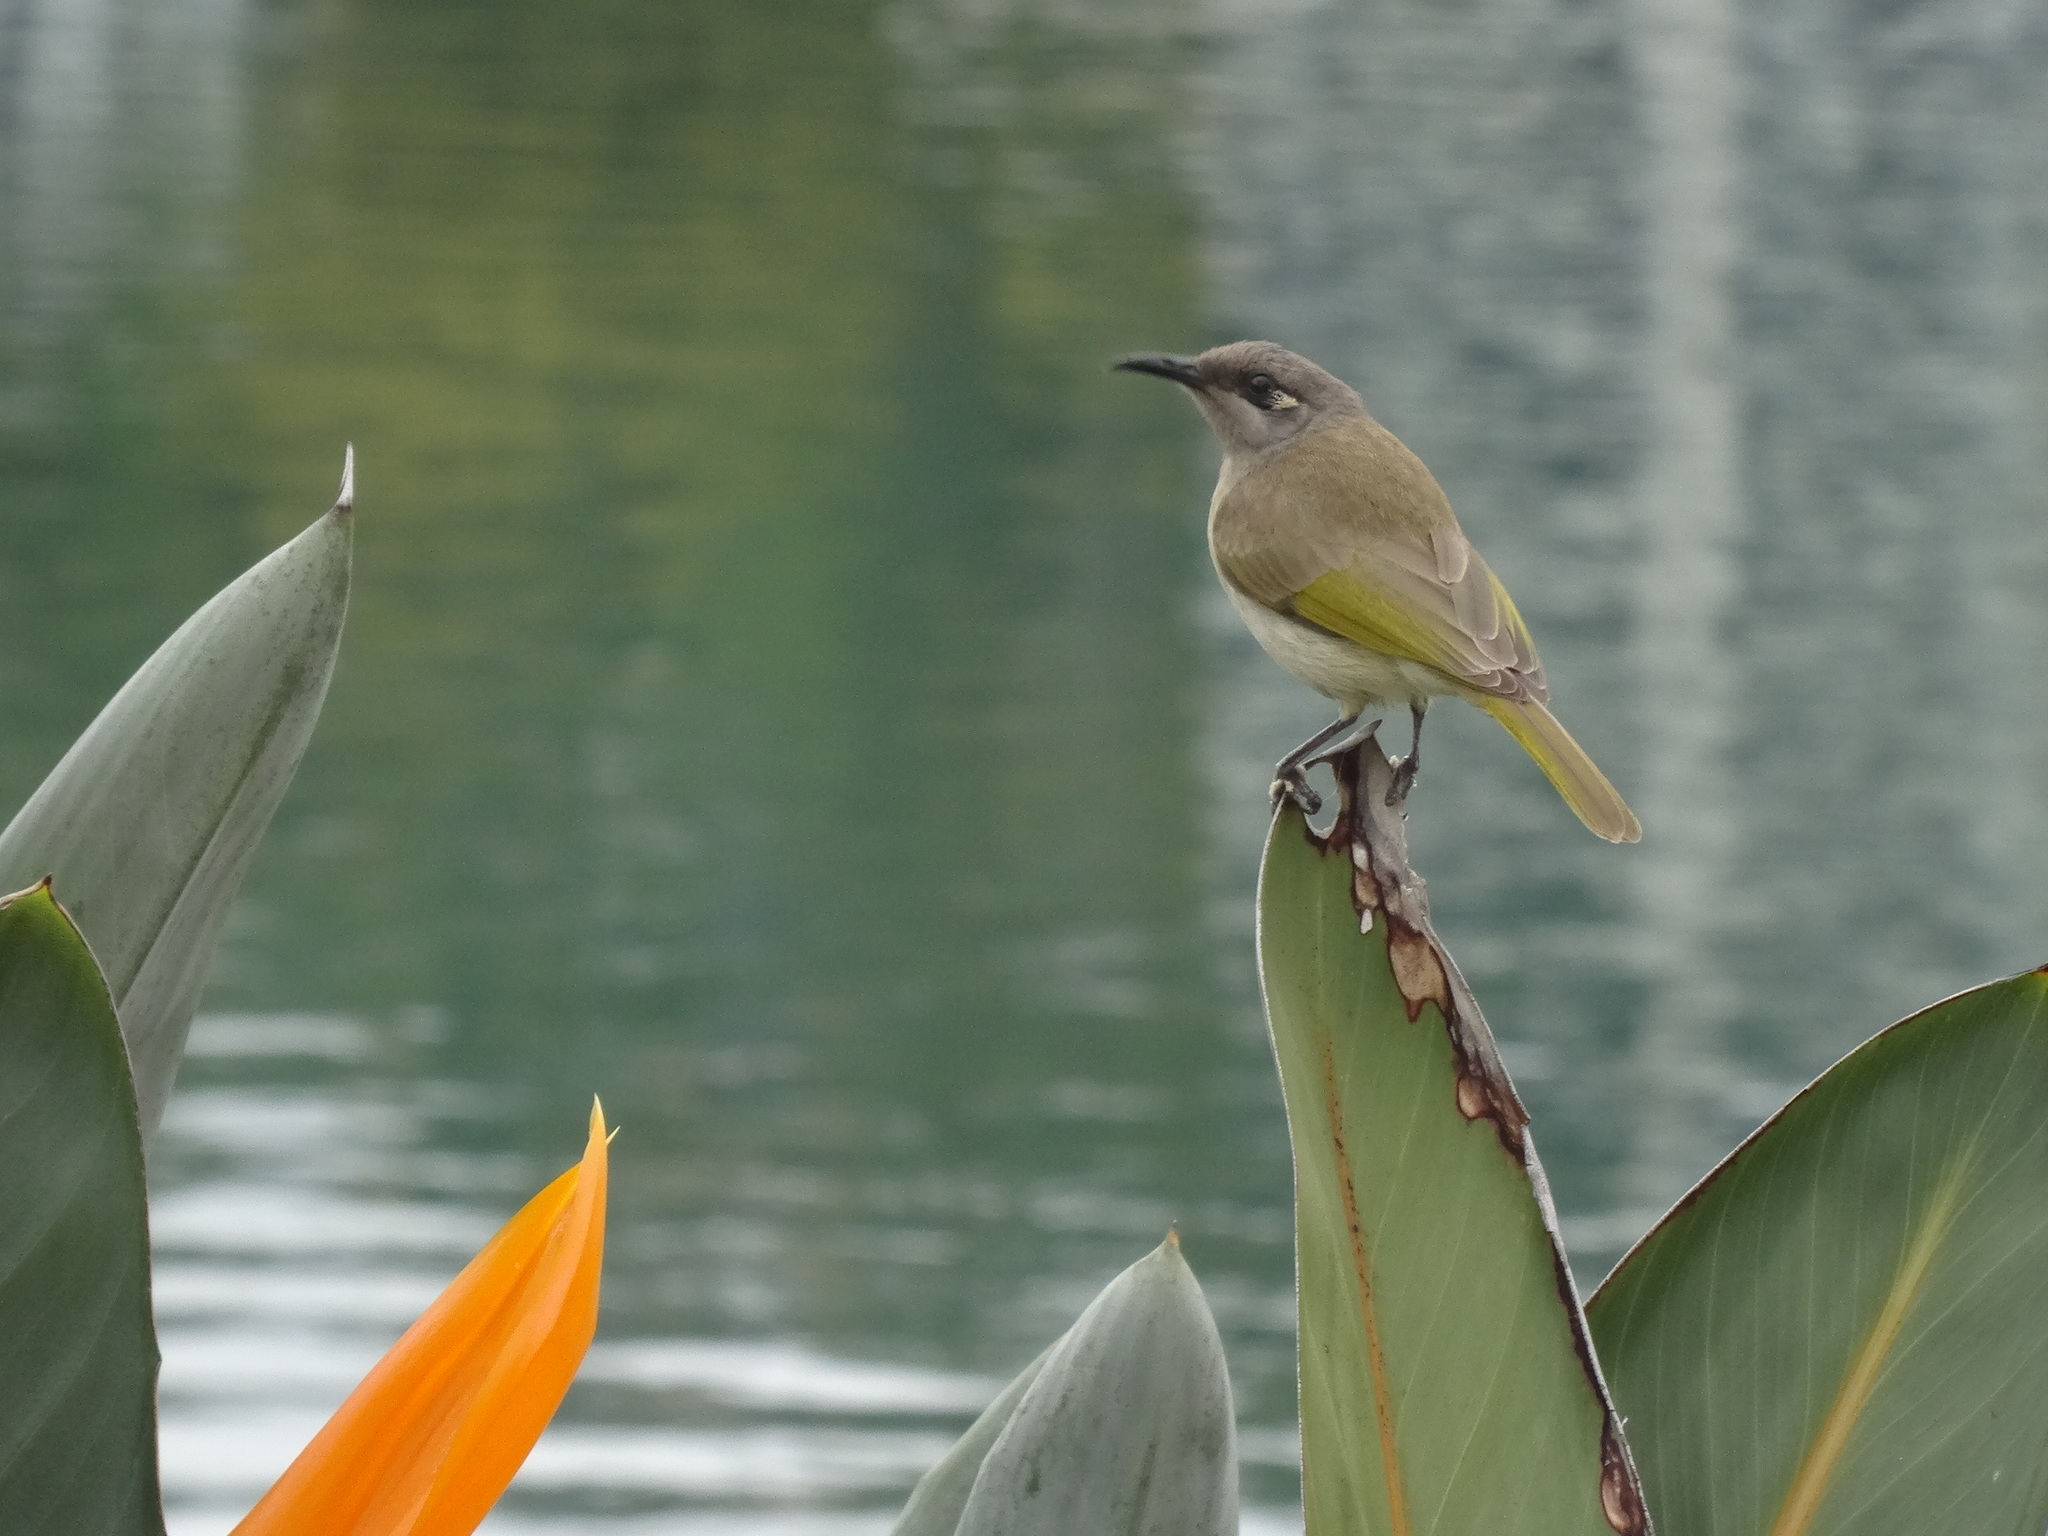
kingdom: Animalia
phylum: Chordata
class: Aves
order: Passeriformes
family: Meliphagidae
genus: Lichmera
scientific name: Lichmera indistincta
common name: Brown honeyeater
